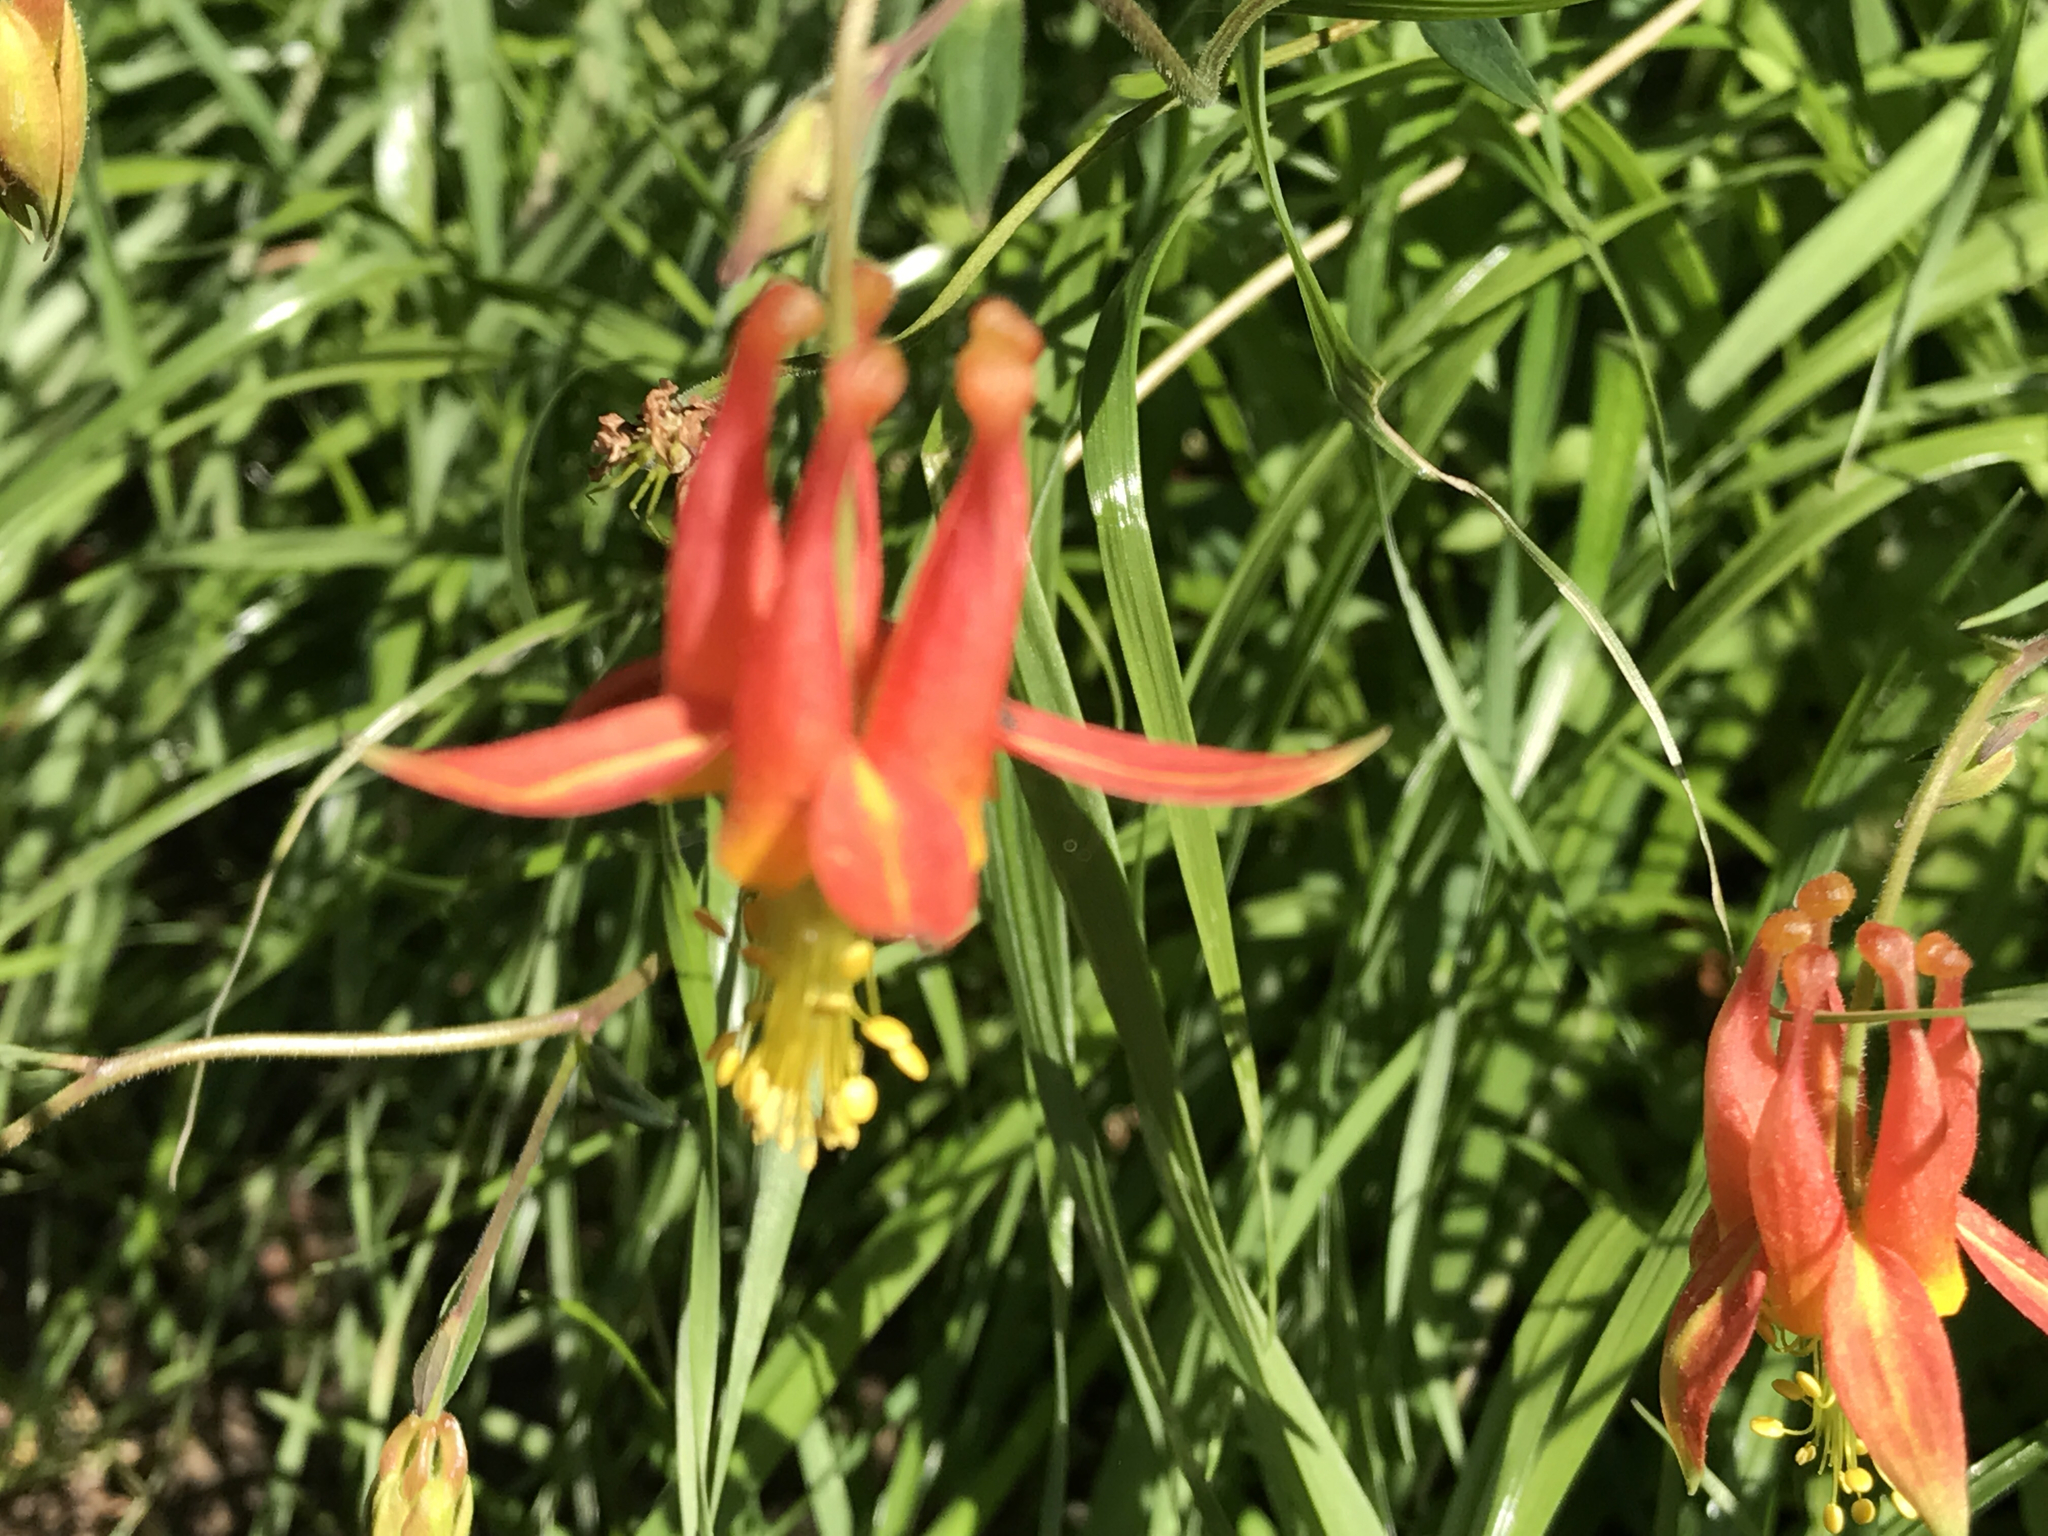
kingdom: Plantae
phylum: Tracheophyta
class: Magnoliopsida
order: Ranunculales
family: Ranunculaceae
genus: Aquilegia
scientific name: Aquilegia formosa
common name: Sitka columbine
